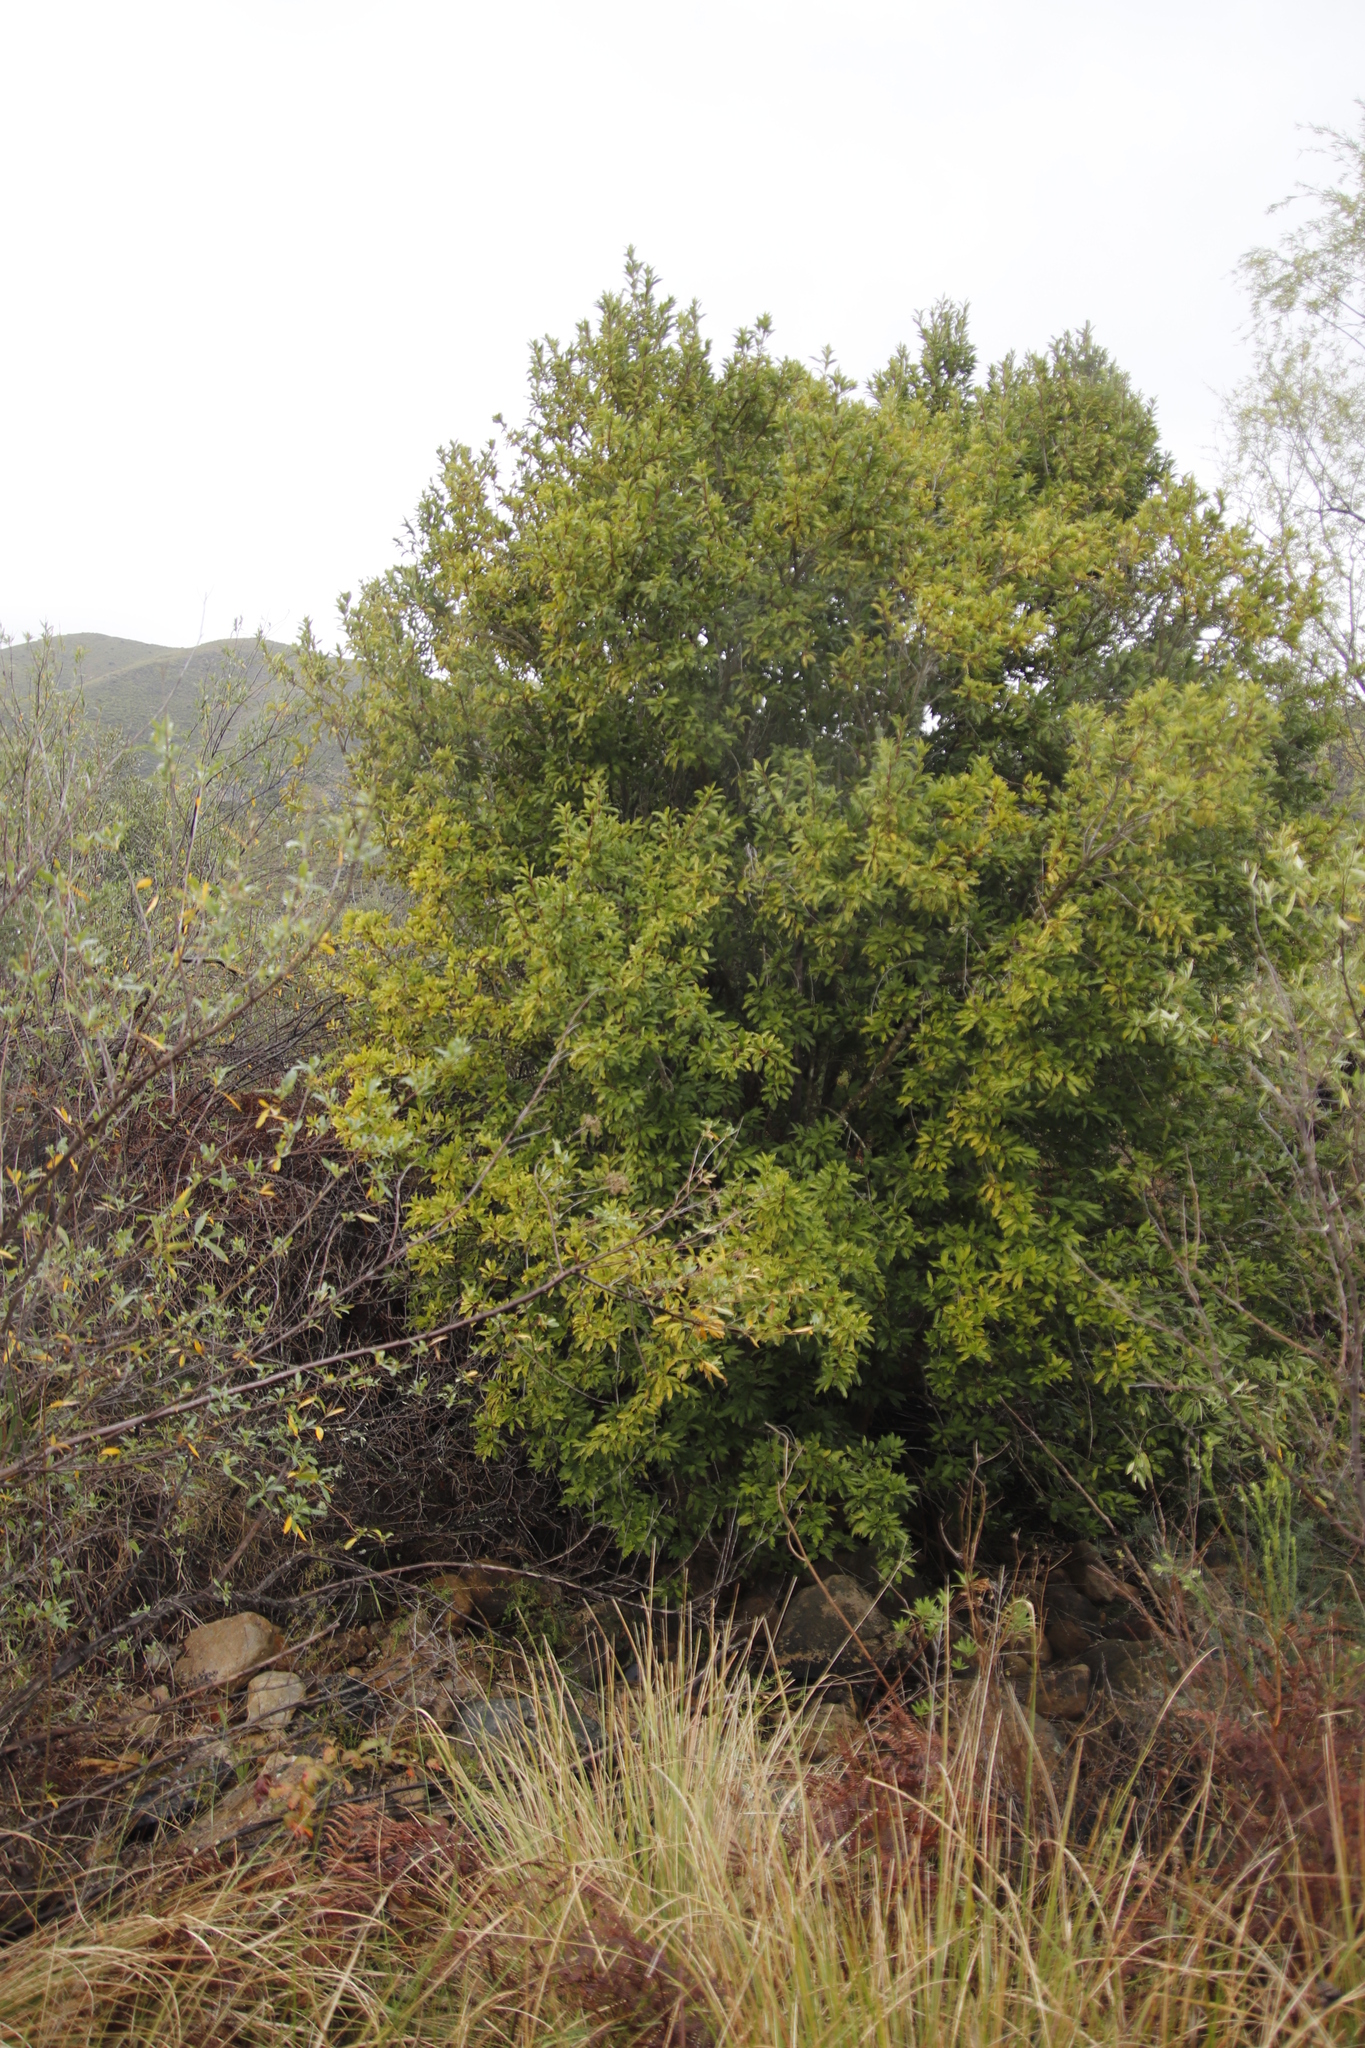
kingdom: Plantae
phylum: Tracheophyta
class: Magnoliopsida
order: Aquifoliales
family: Aquifoliaceae
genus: Ilex
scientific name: Ilex mitis
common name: African holly
